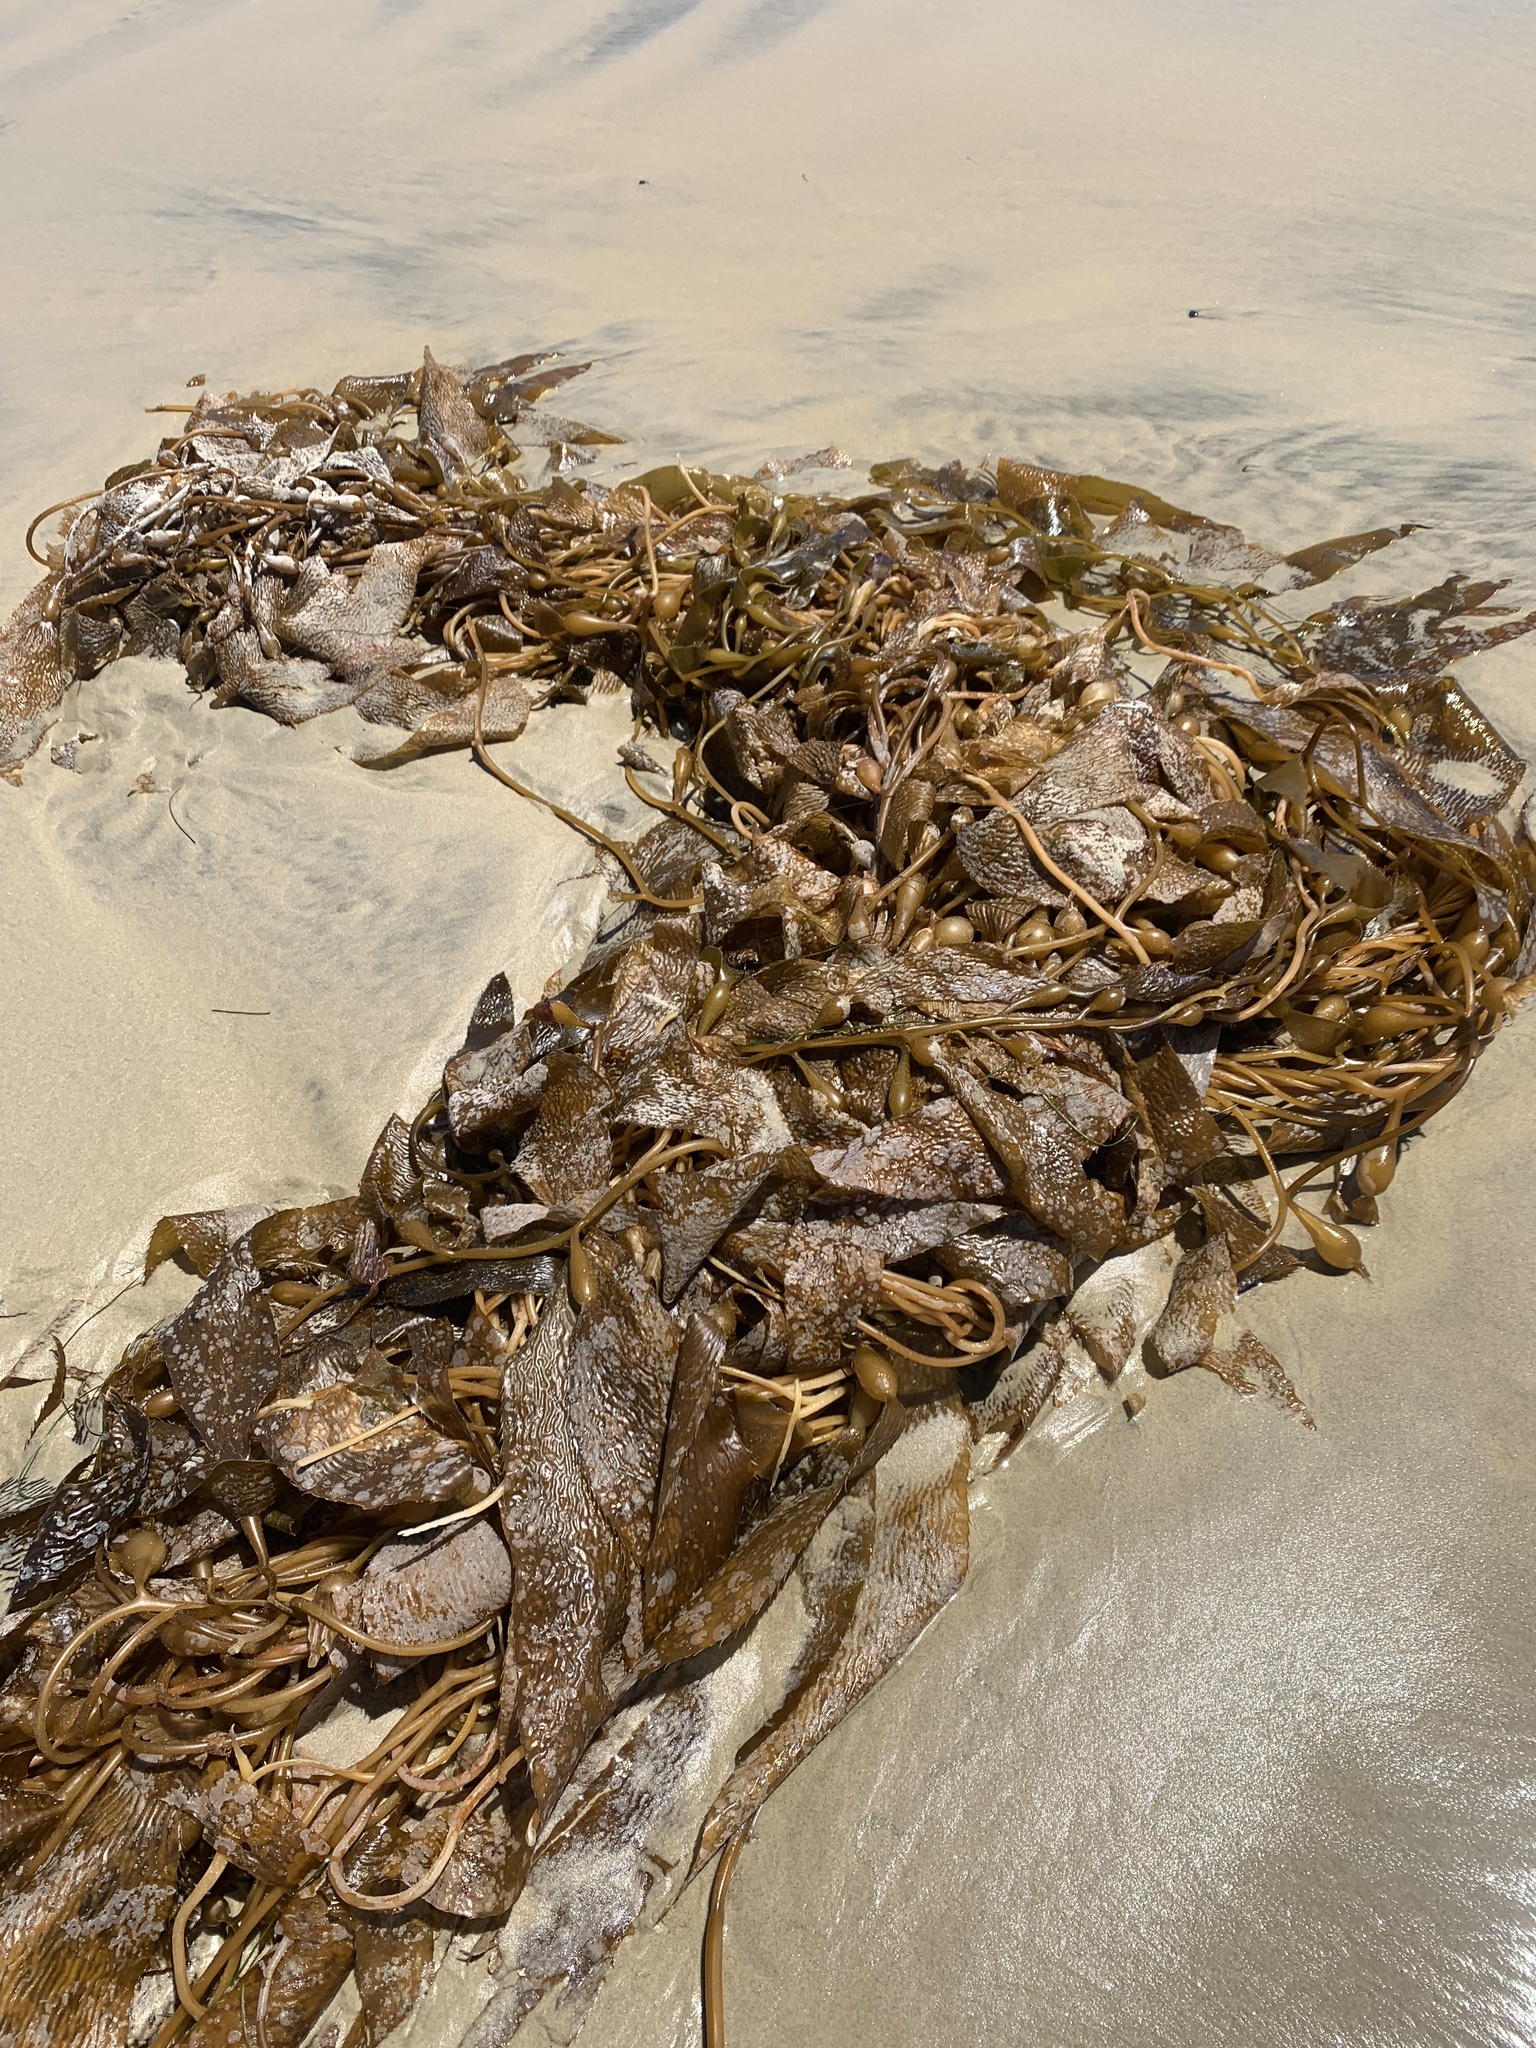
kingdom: Chromista
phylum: Ochrophyta
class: Phaeophyceae
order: Laminariales
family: Laminariaceae
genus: Macrocystis
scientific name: Macrocystis pyrifera
